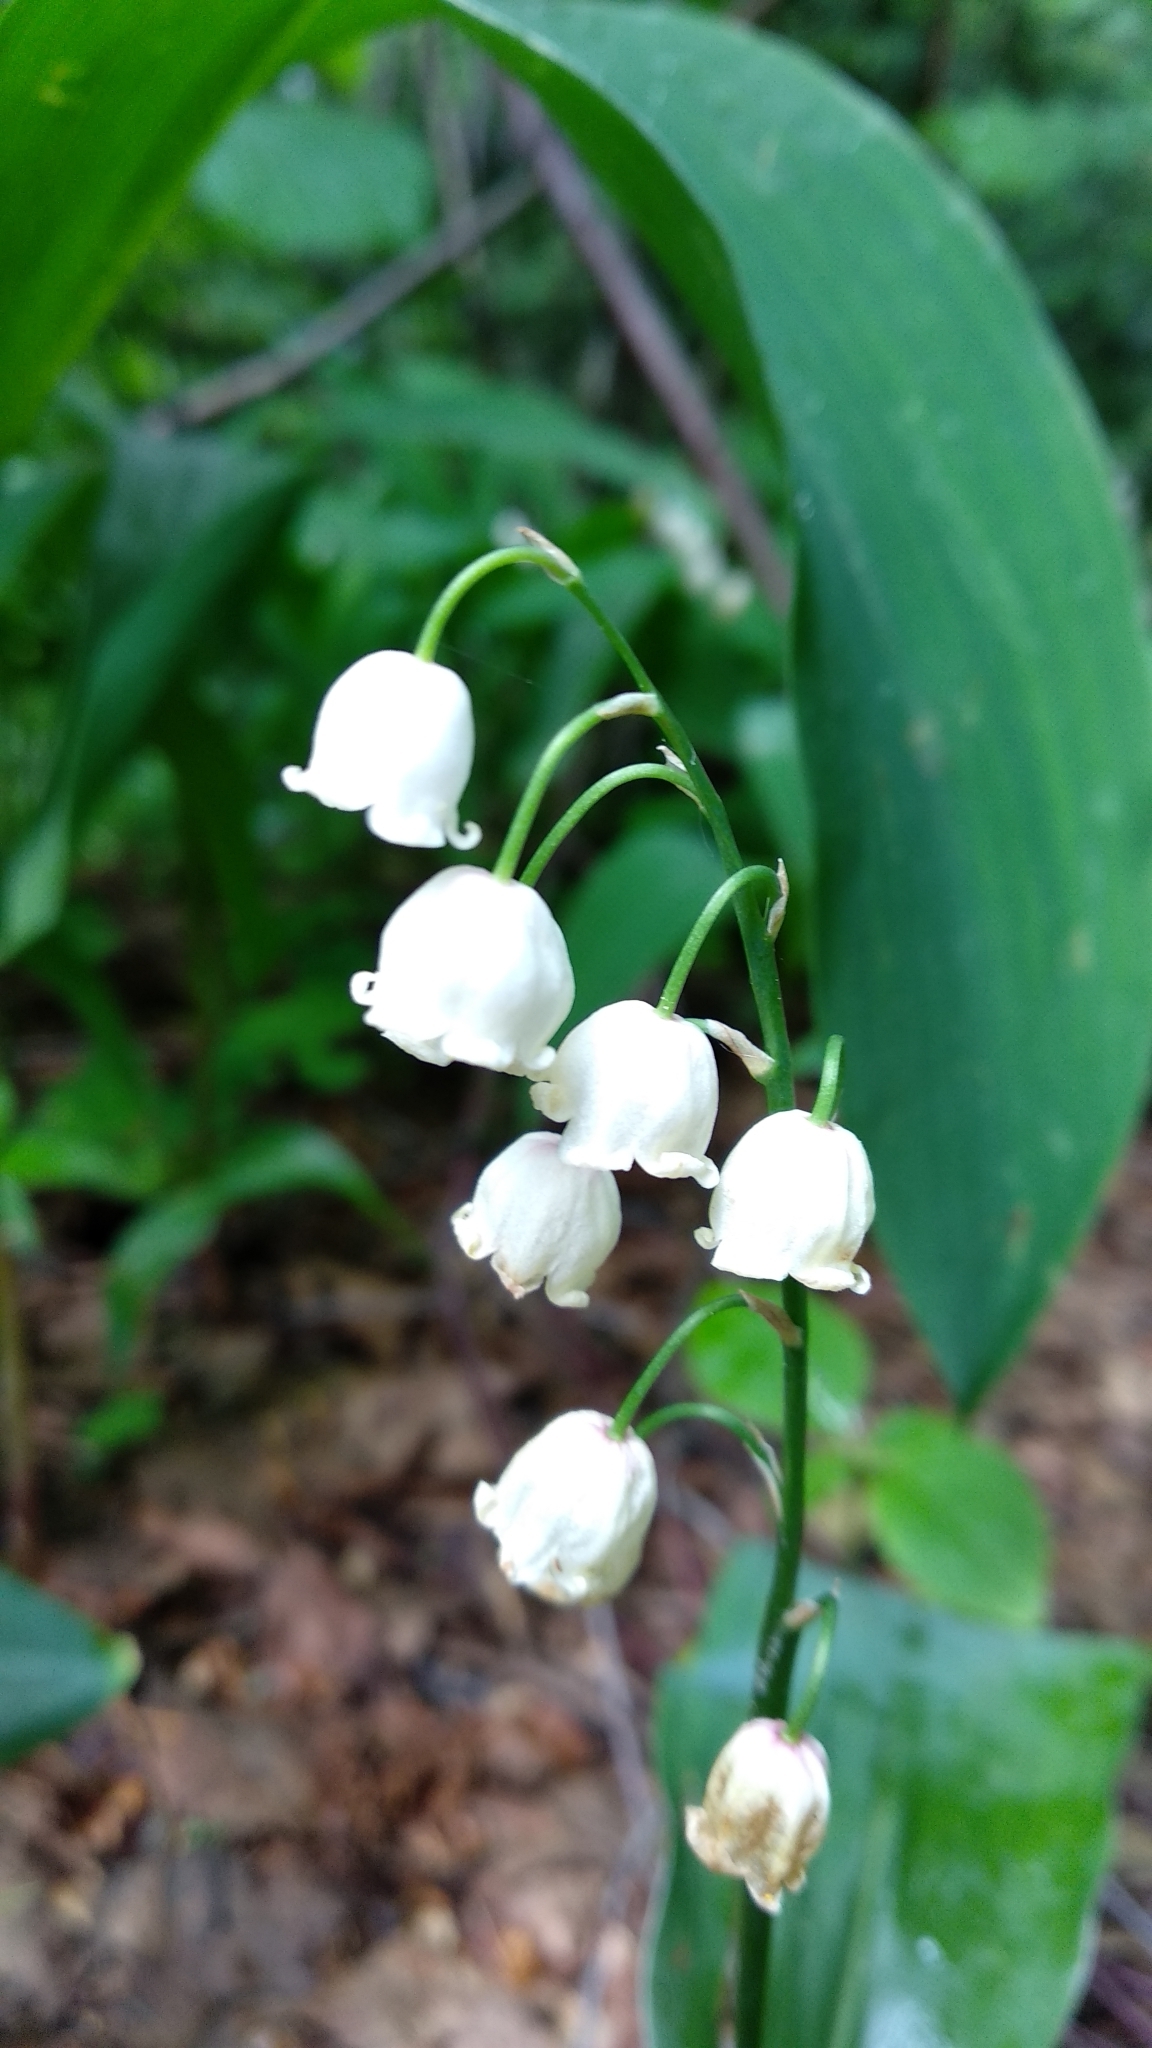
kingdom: Plantae
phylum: Tracheophyta
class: Liliopsida
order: Asparagales
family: Asparagaceae
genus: Convallaria
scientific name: Convallaria majalis
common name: Lily-of-the-valley
